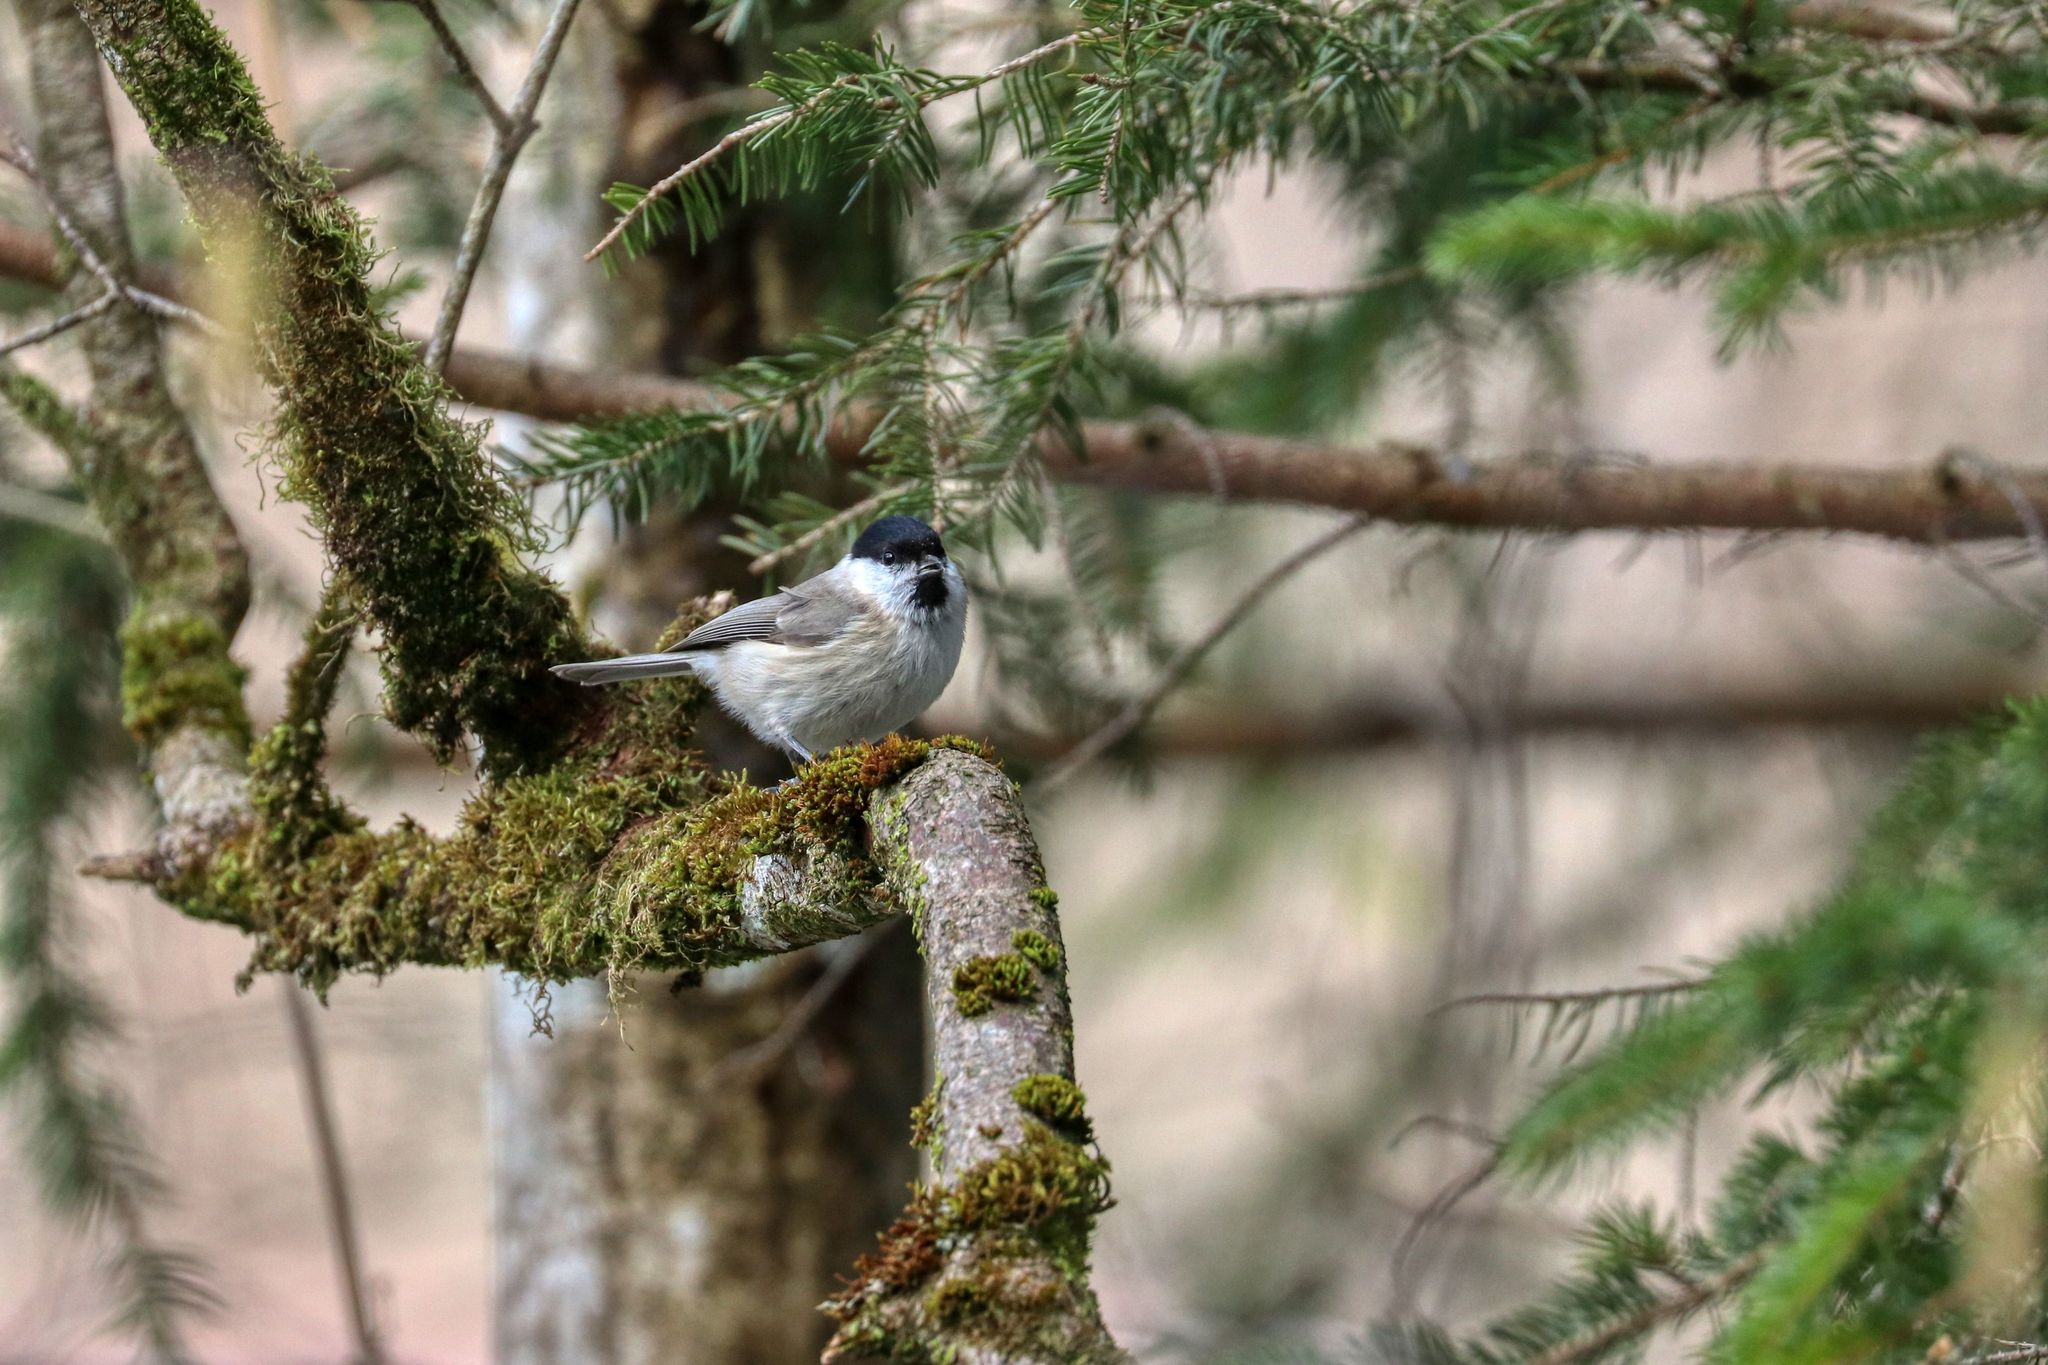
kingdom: Animalia
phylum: Chordata
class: Aves
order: Passeriformes
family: Paridae
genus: Poecile
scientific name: Poecile palustris
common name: Marsh tit
